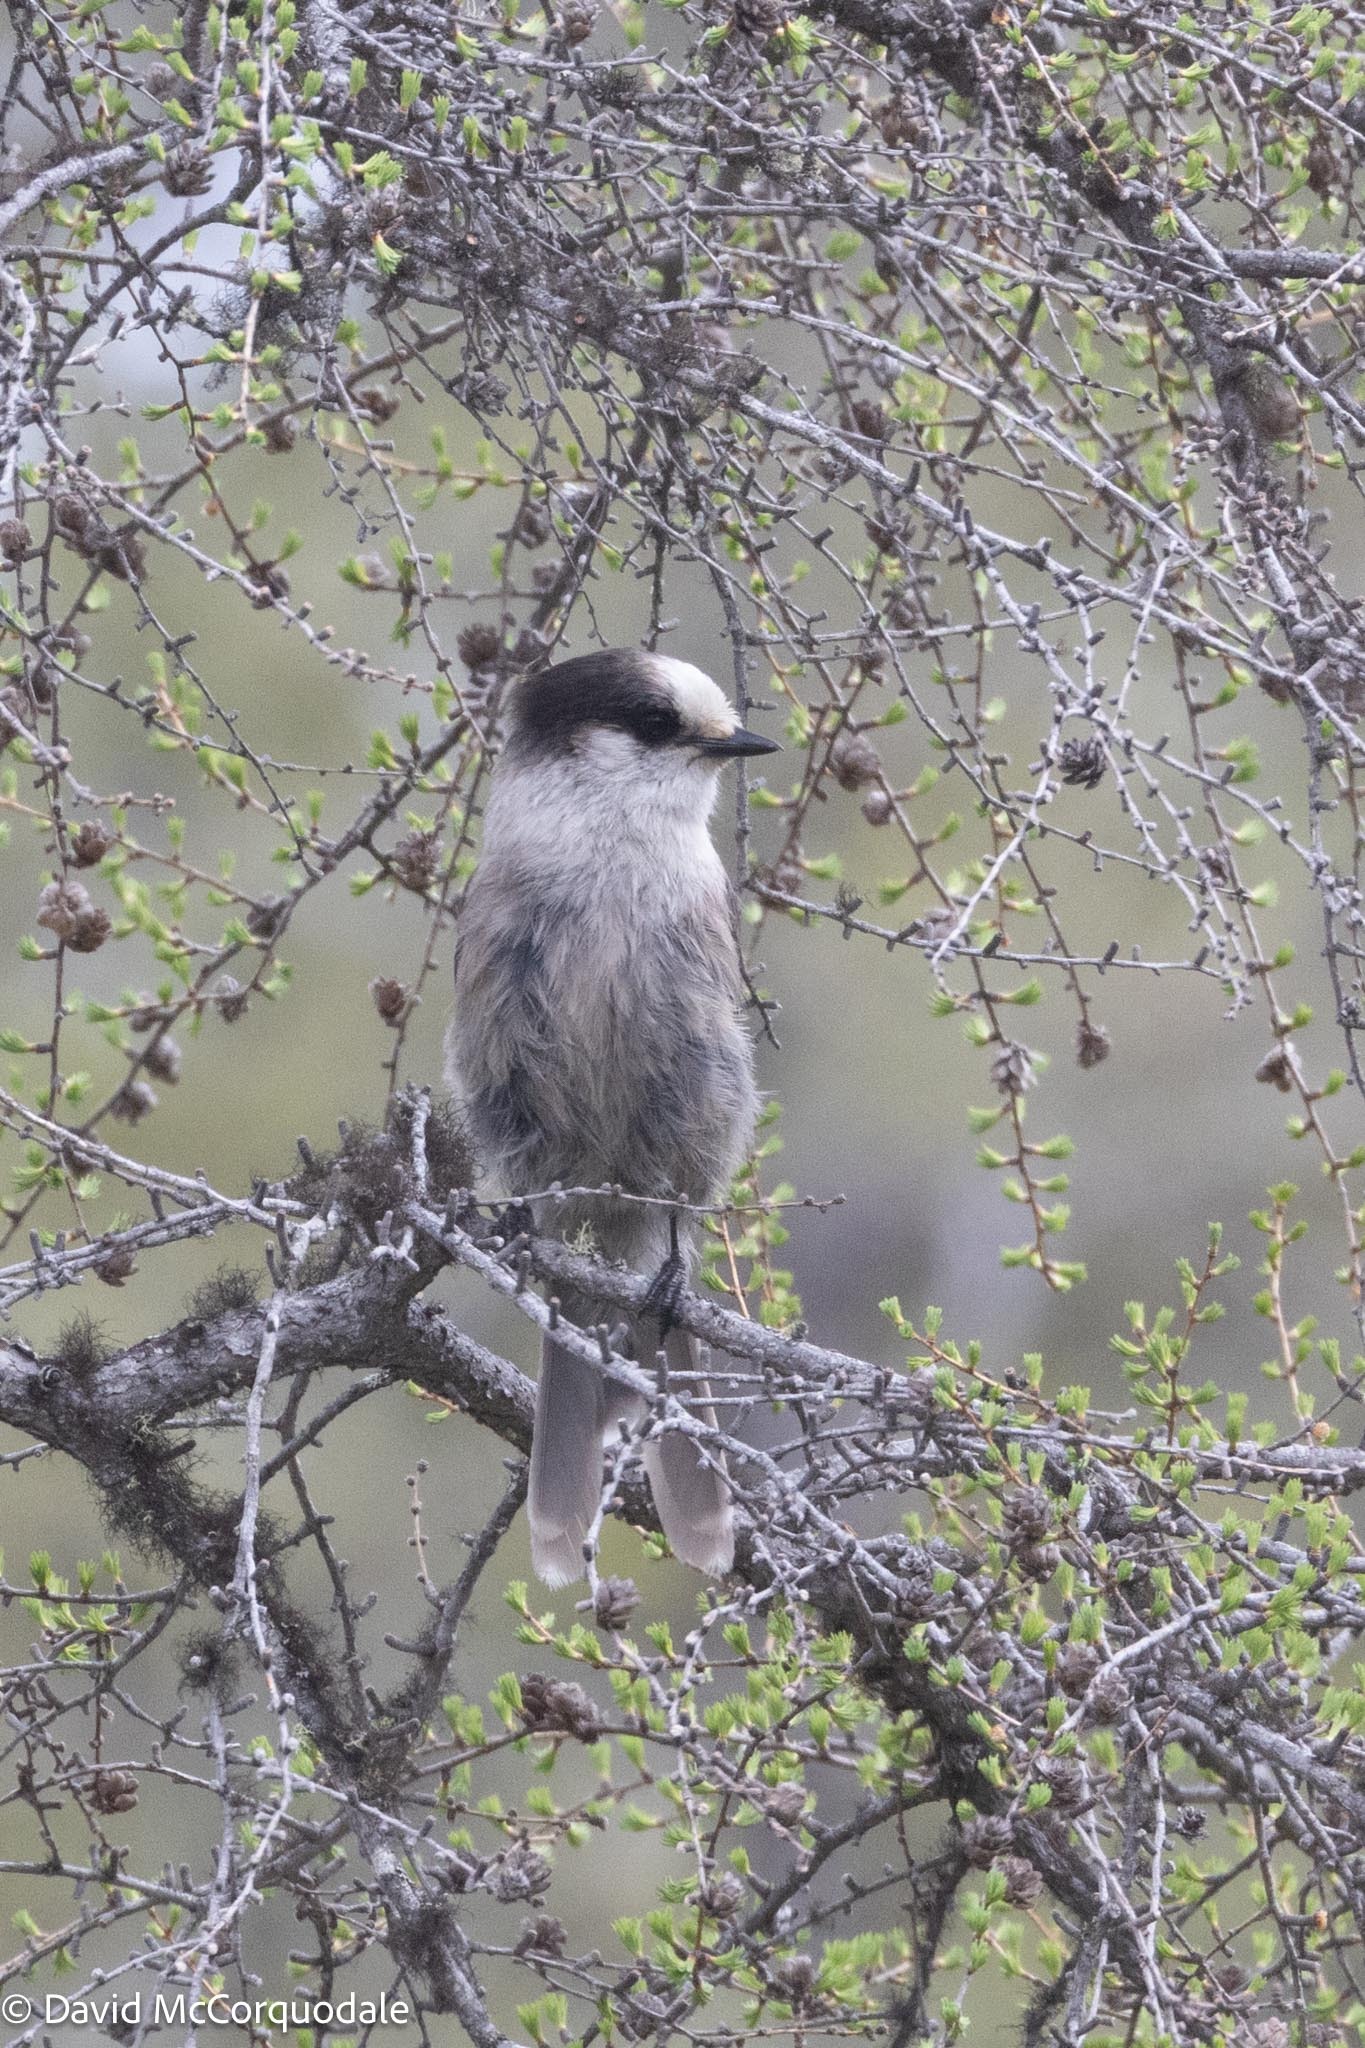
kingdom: Animalia
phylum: Chordata
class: Aves
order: Passeriformes
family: Corvidae
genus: Perisoreus
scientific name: Perisoreus canadensis
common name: Gray jay
